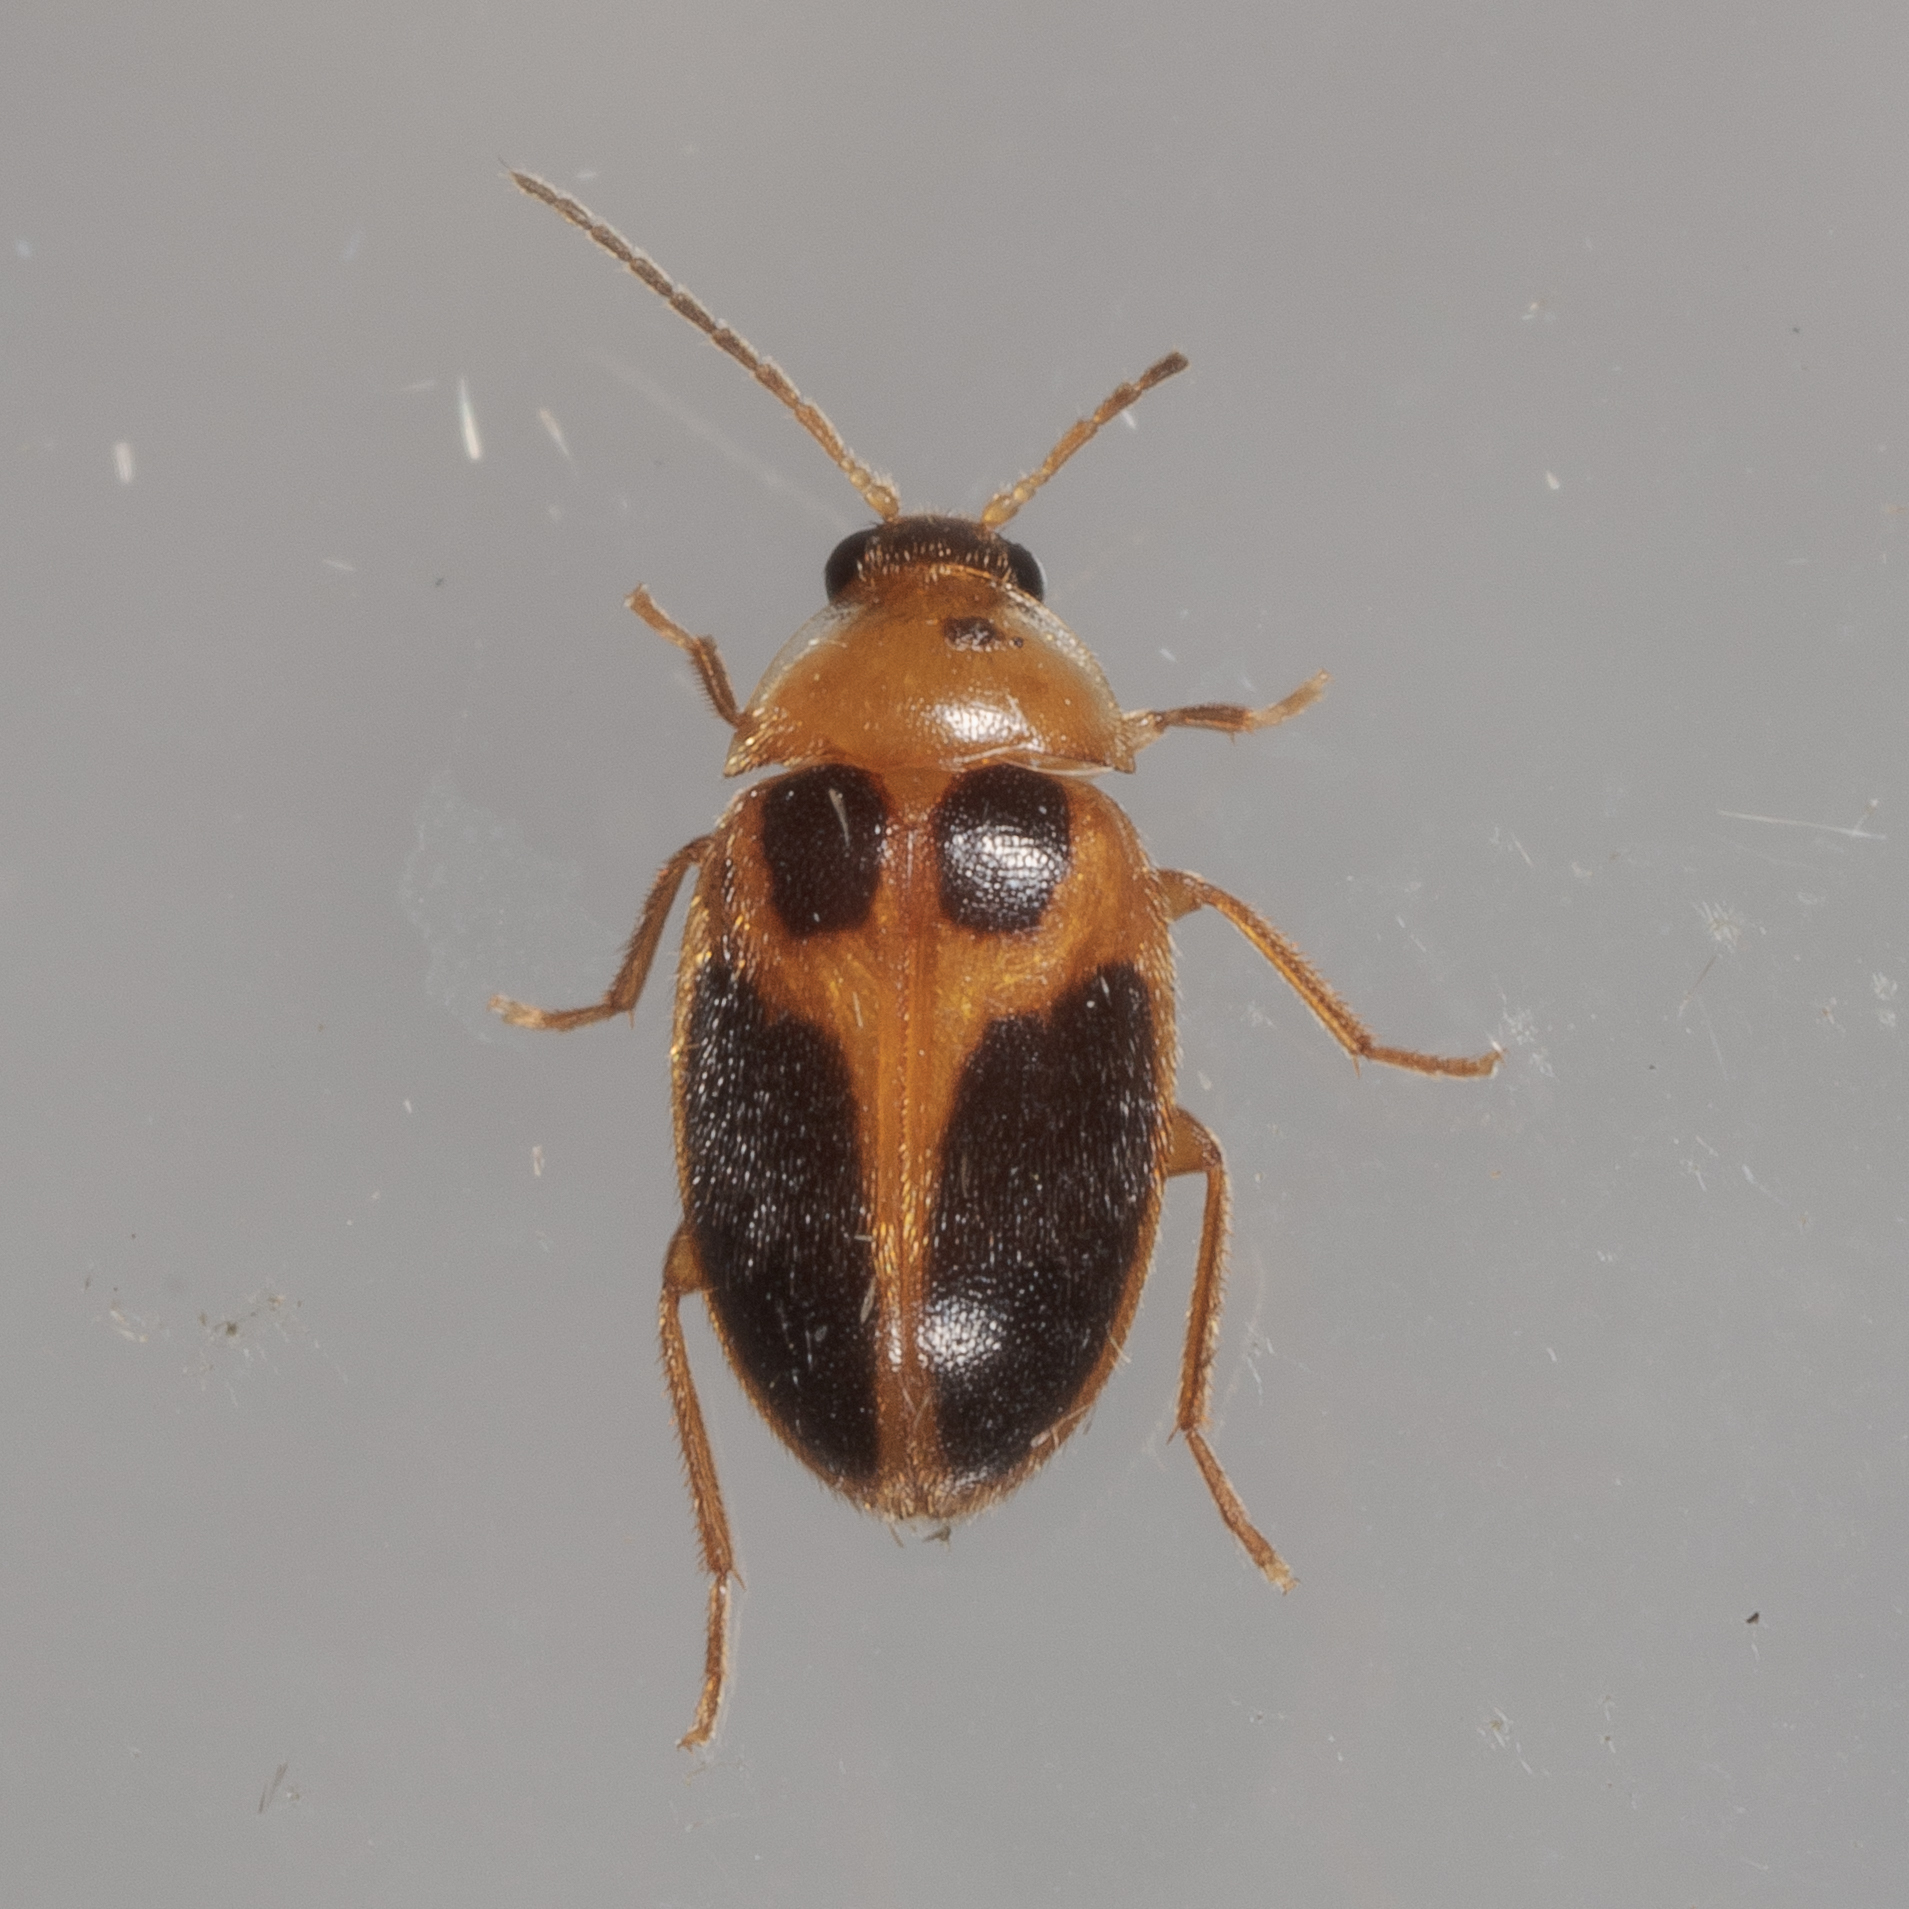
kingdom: Animalia
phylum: Arthropoda
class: Insecta
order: Coleoptera
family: Scirtidae
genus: Sacodes
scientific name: Sacodes pulchella
